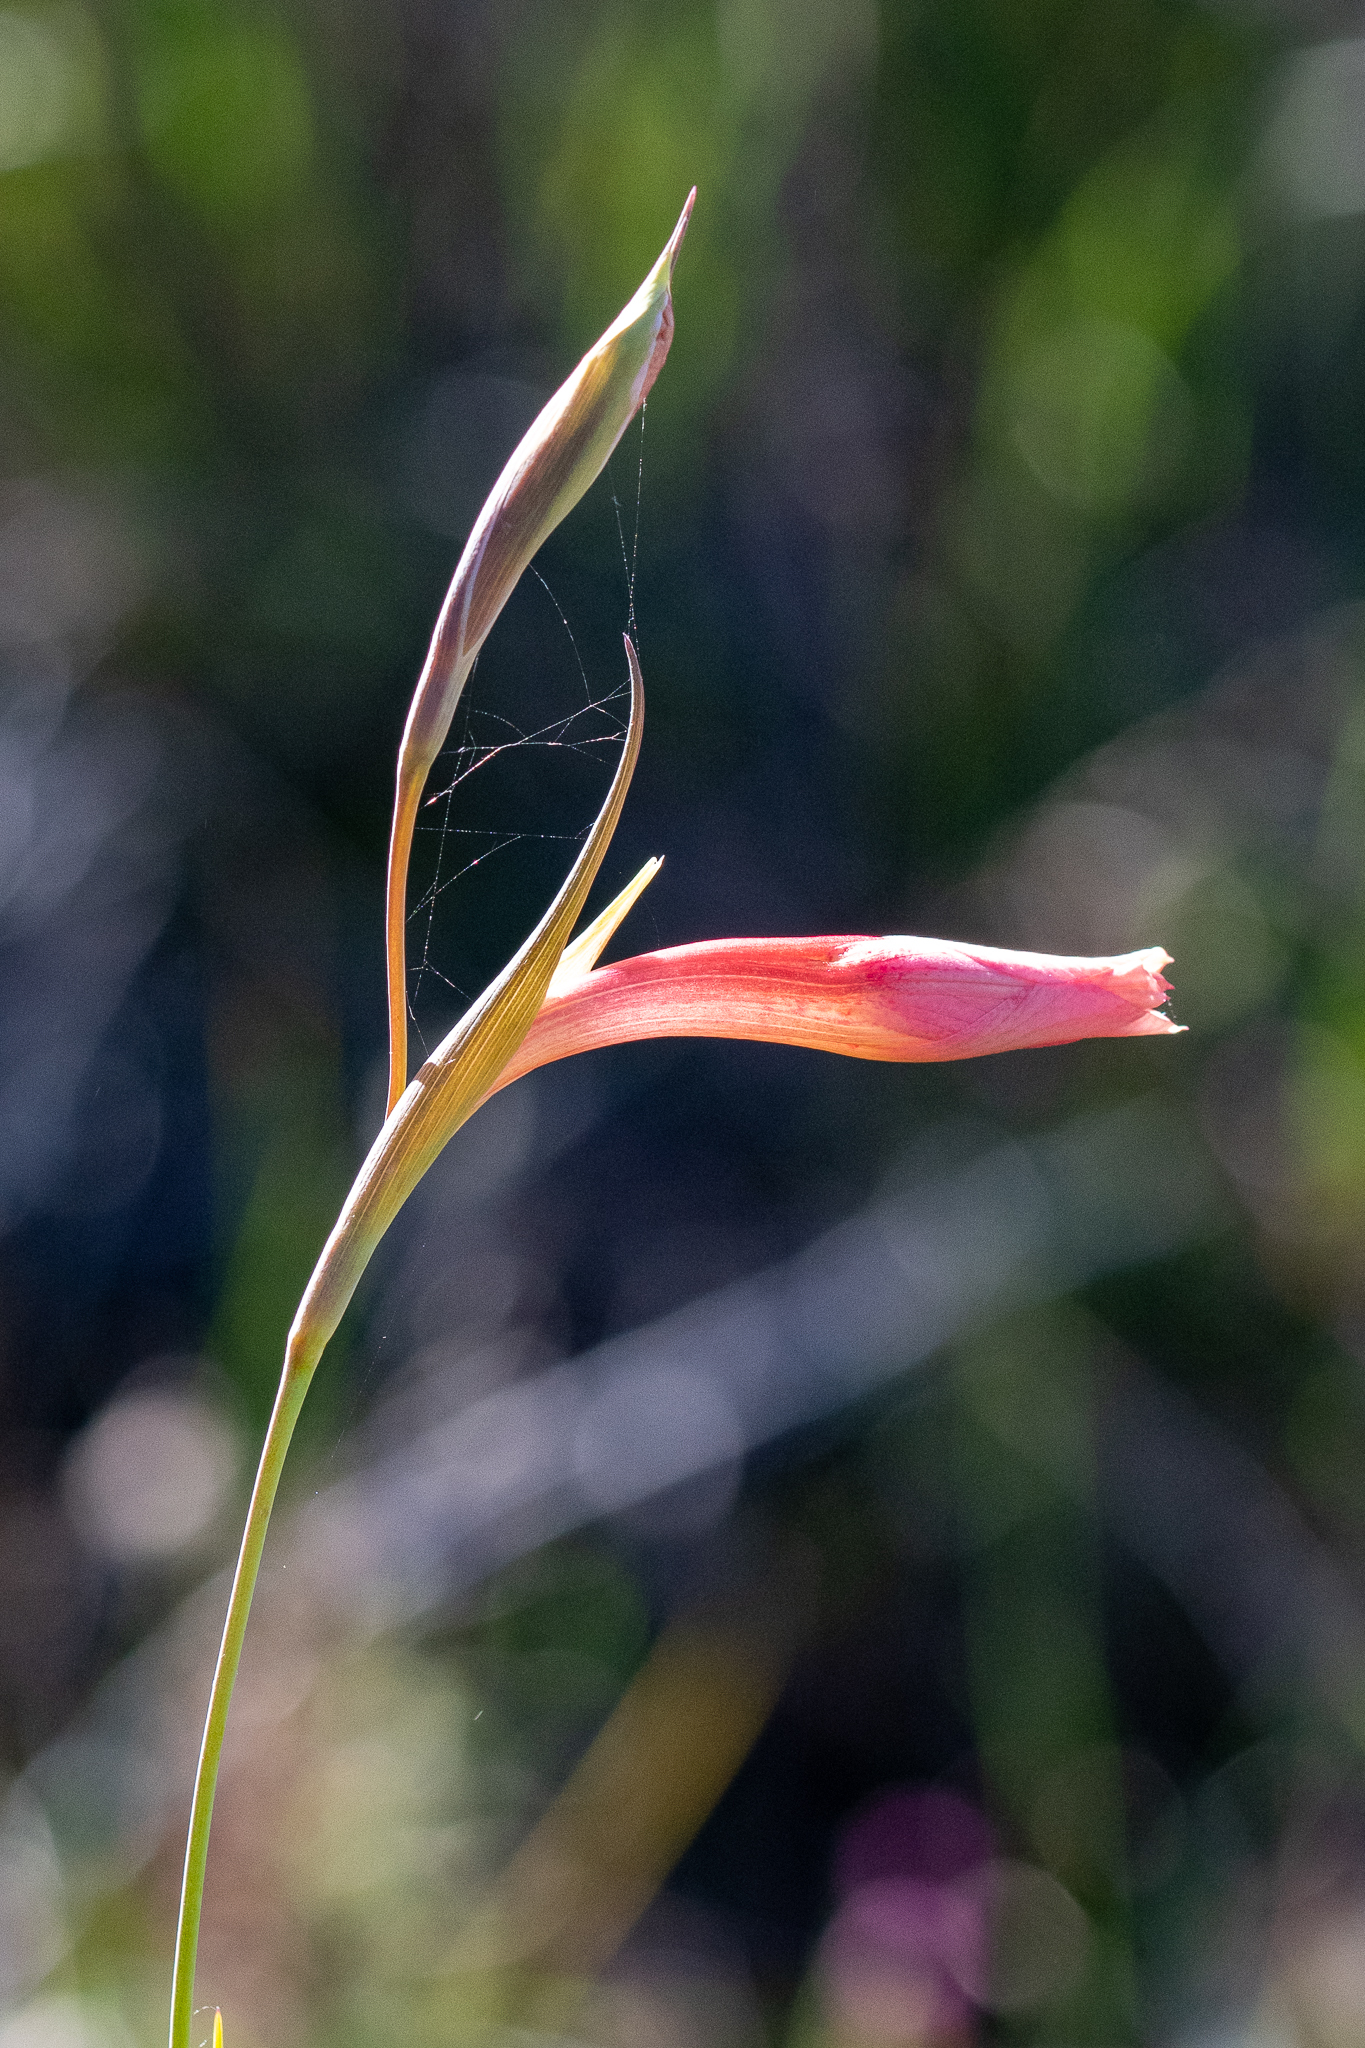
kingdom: Plantae
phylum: Tracheophyta
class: Liliopsida
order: Asparagales
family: Iridaceae
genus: Gladiolus
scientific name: Gladiolus meridionalis
